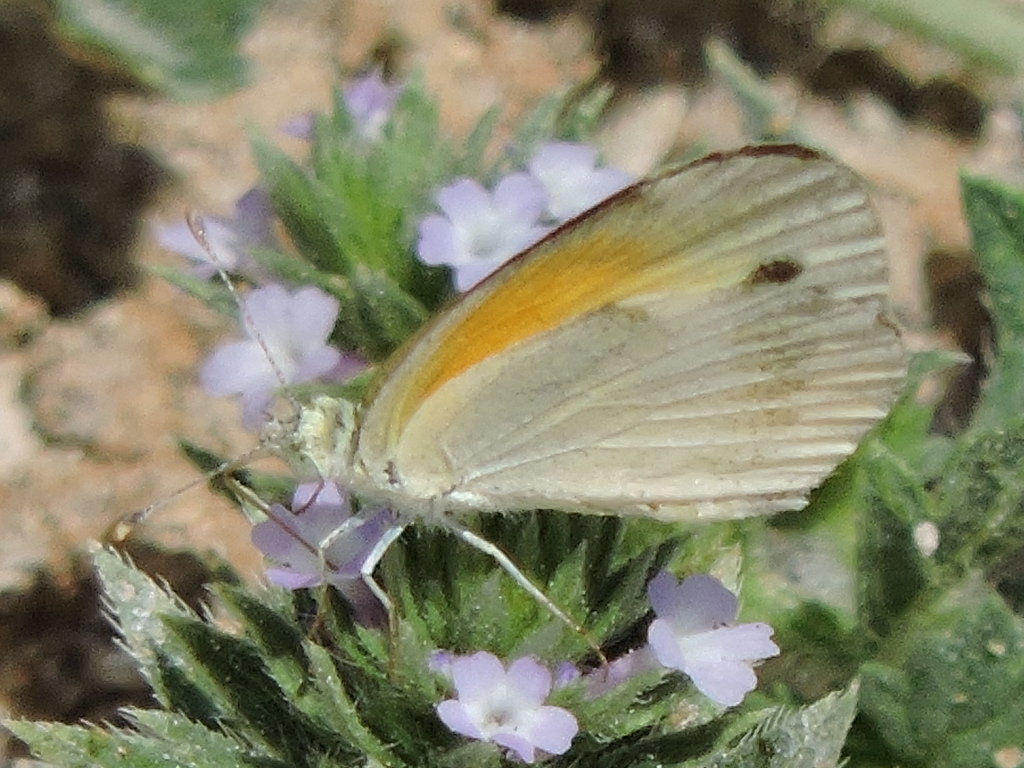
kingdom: Animalia
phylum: Arthropoda
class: Insecta
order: Lepidoptera
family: Pieridae
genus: Nathalis
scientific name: Nathalis iole
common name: Dainty sulphur
